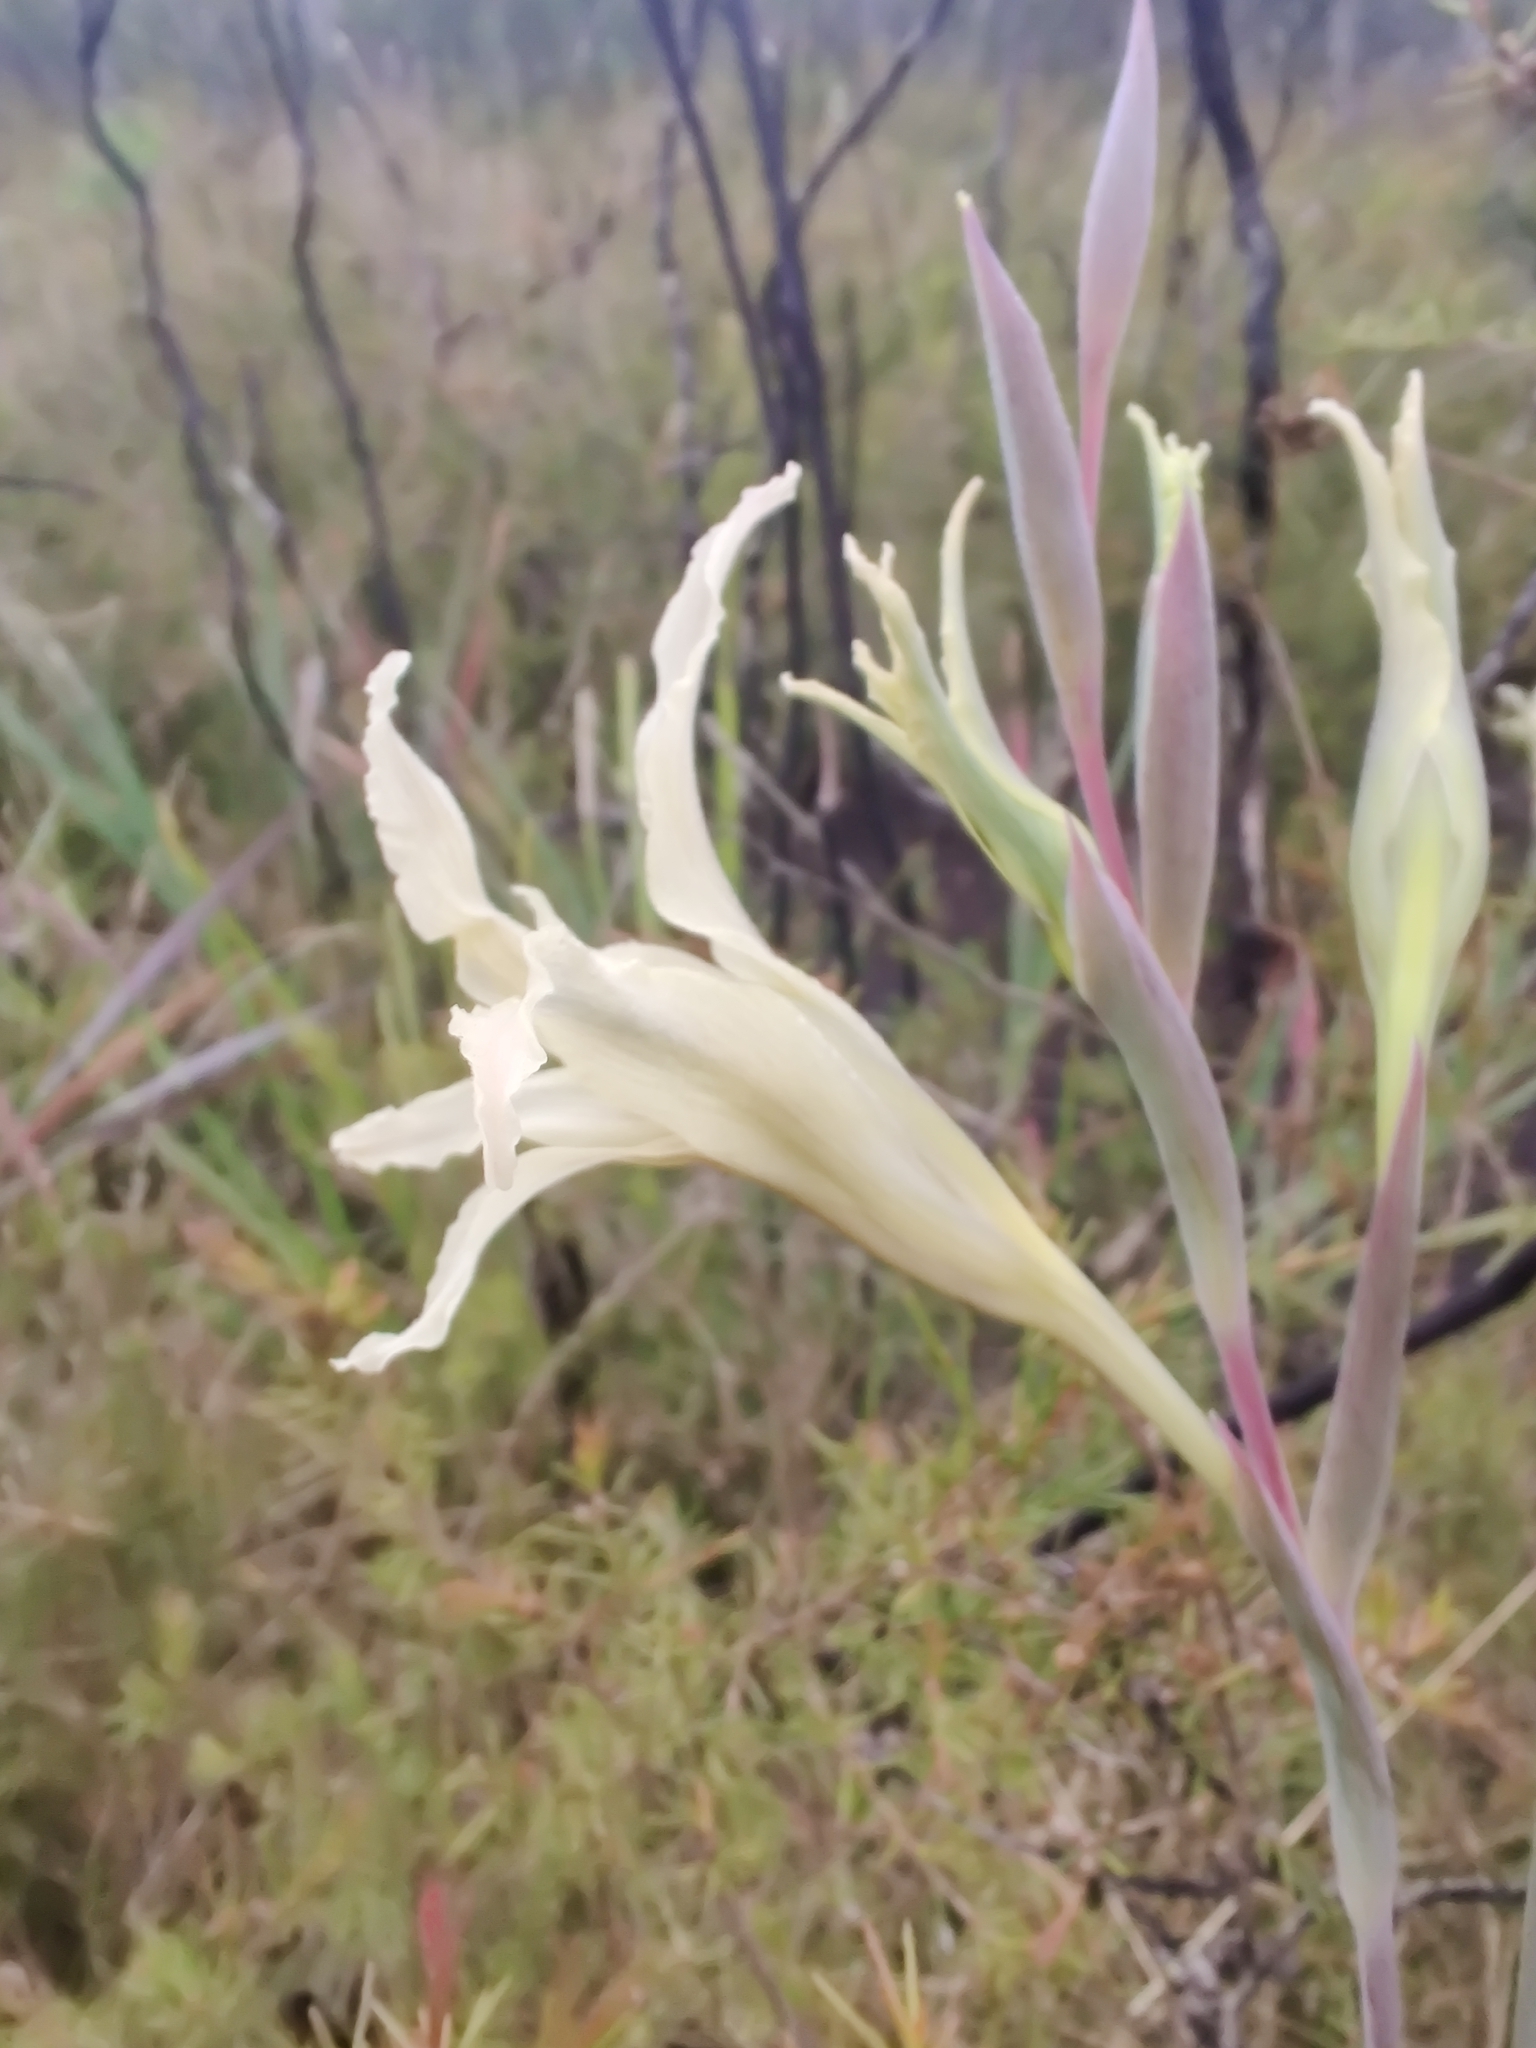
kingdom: Plantae
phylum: Tracheophyta
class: Liliopsida
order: Asparagales
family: Iridaceae
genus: Gladiolus
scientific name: Gladiolus undulatus
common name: Large painted-lady
